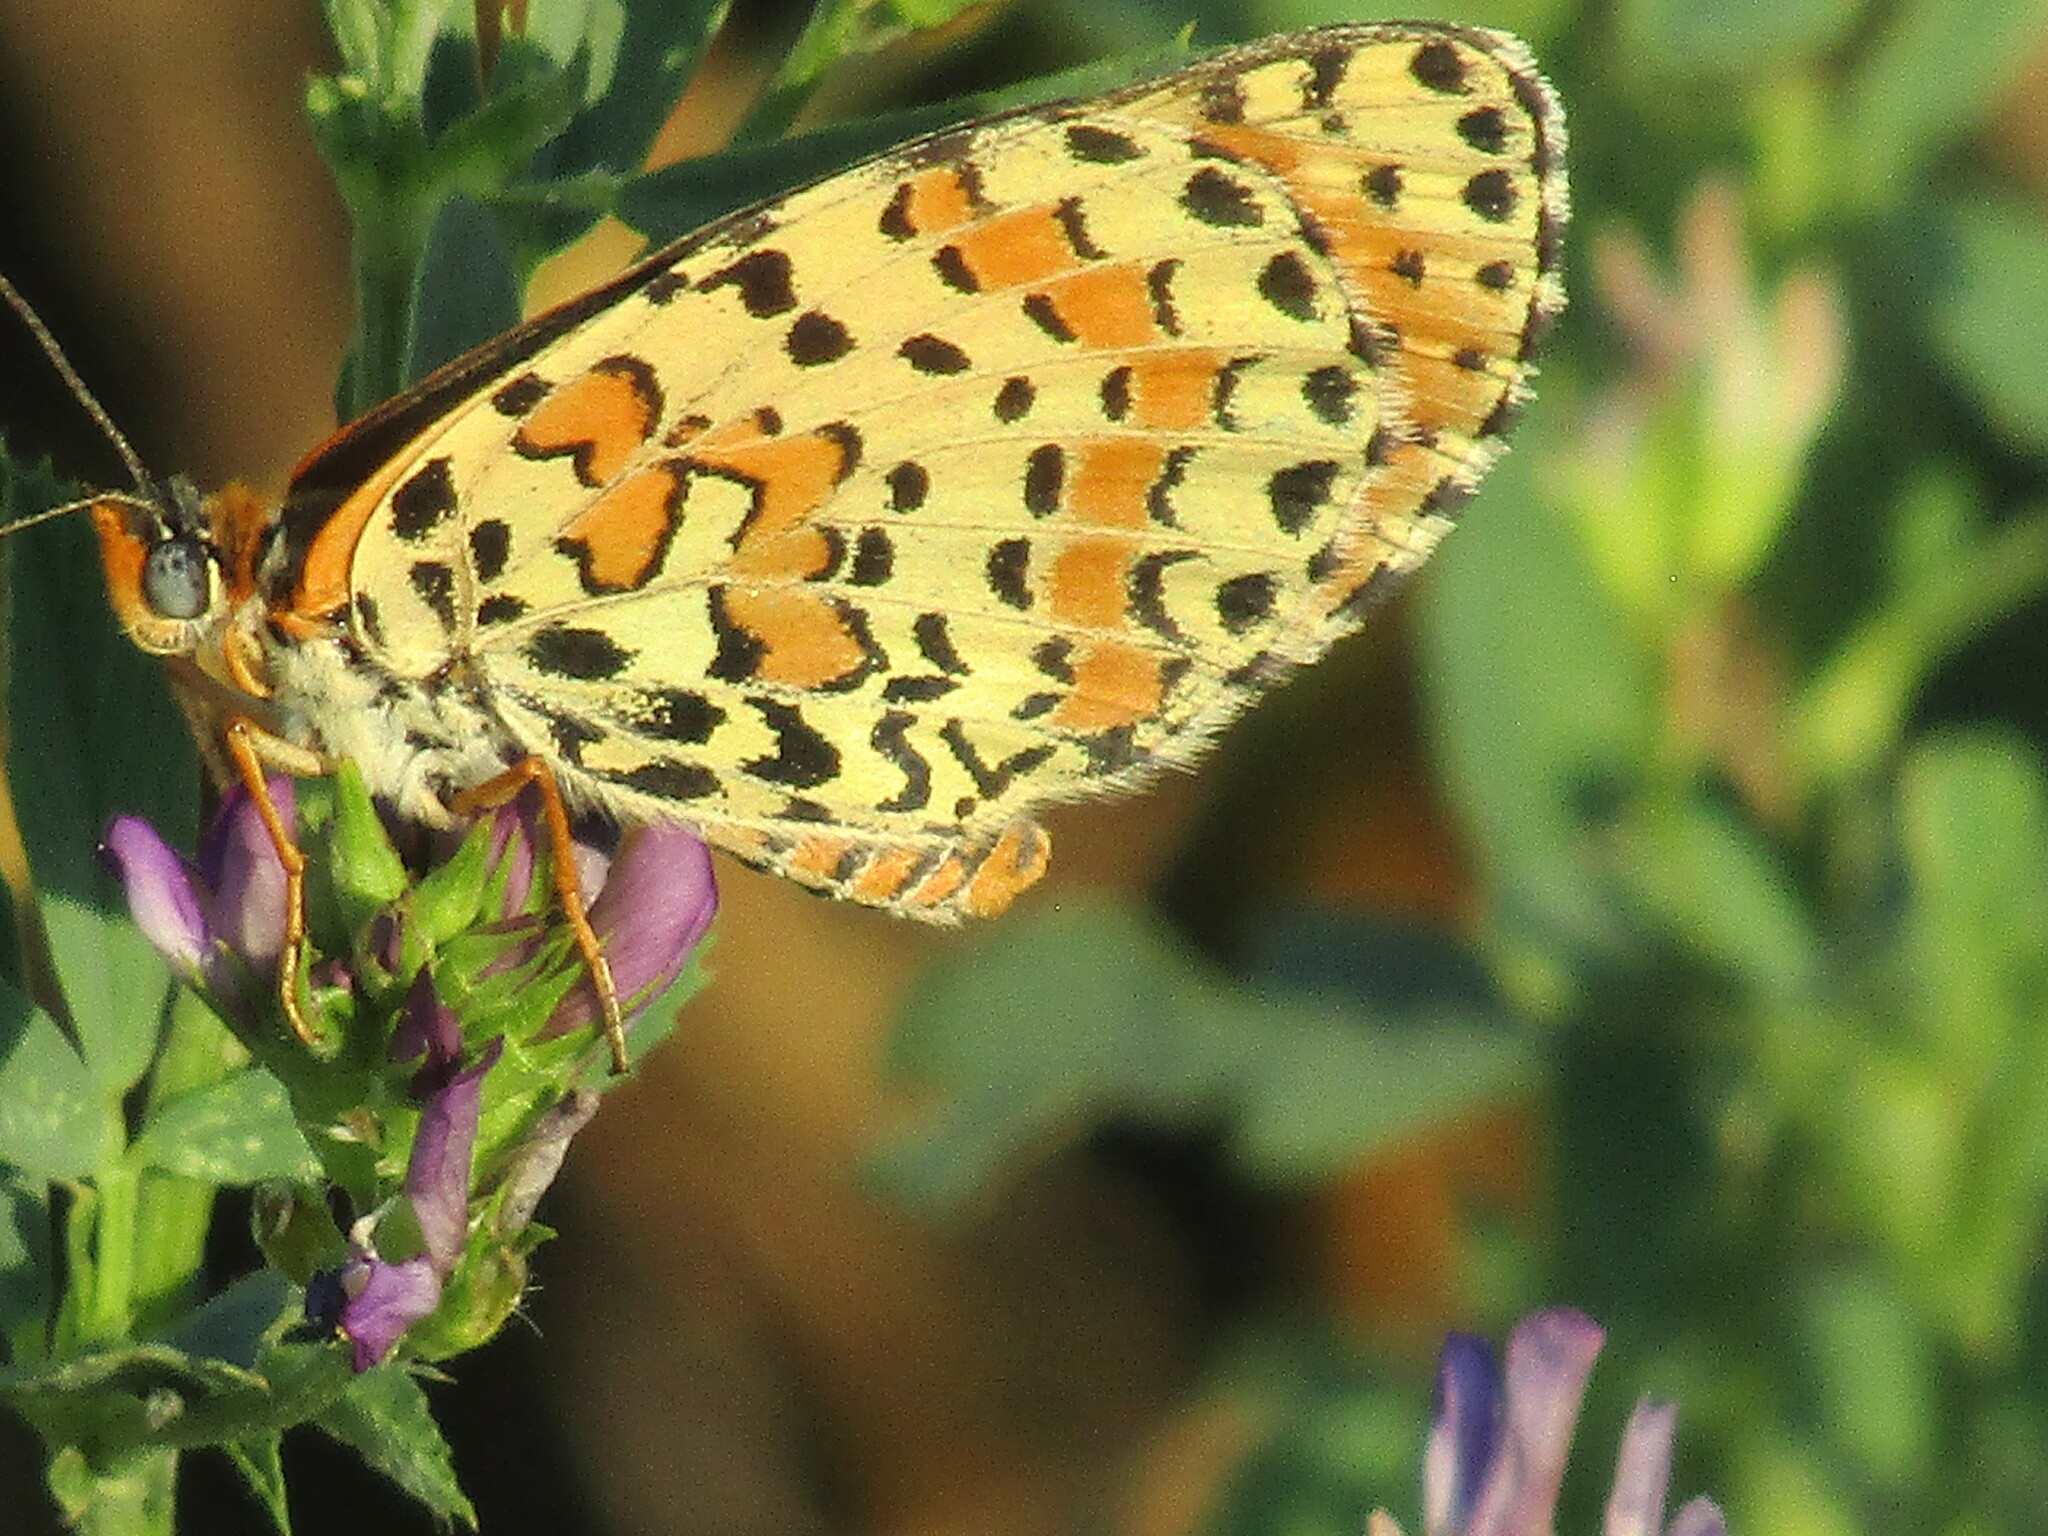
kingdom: Animalia
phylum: Arthropoda
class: Insecta
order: Lepidoptera
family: Nymphalidae
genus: Melitaea
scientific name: Melitaea didyma
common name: Spotted fritillary
